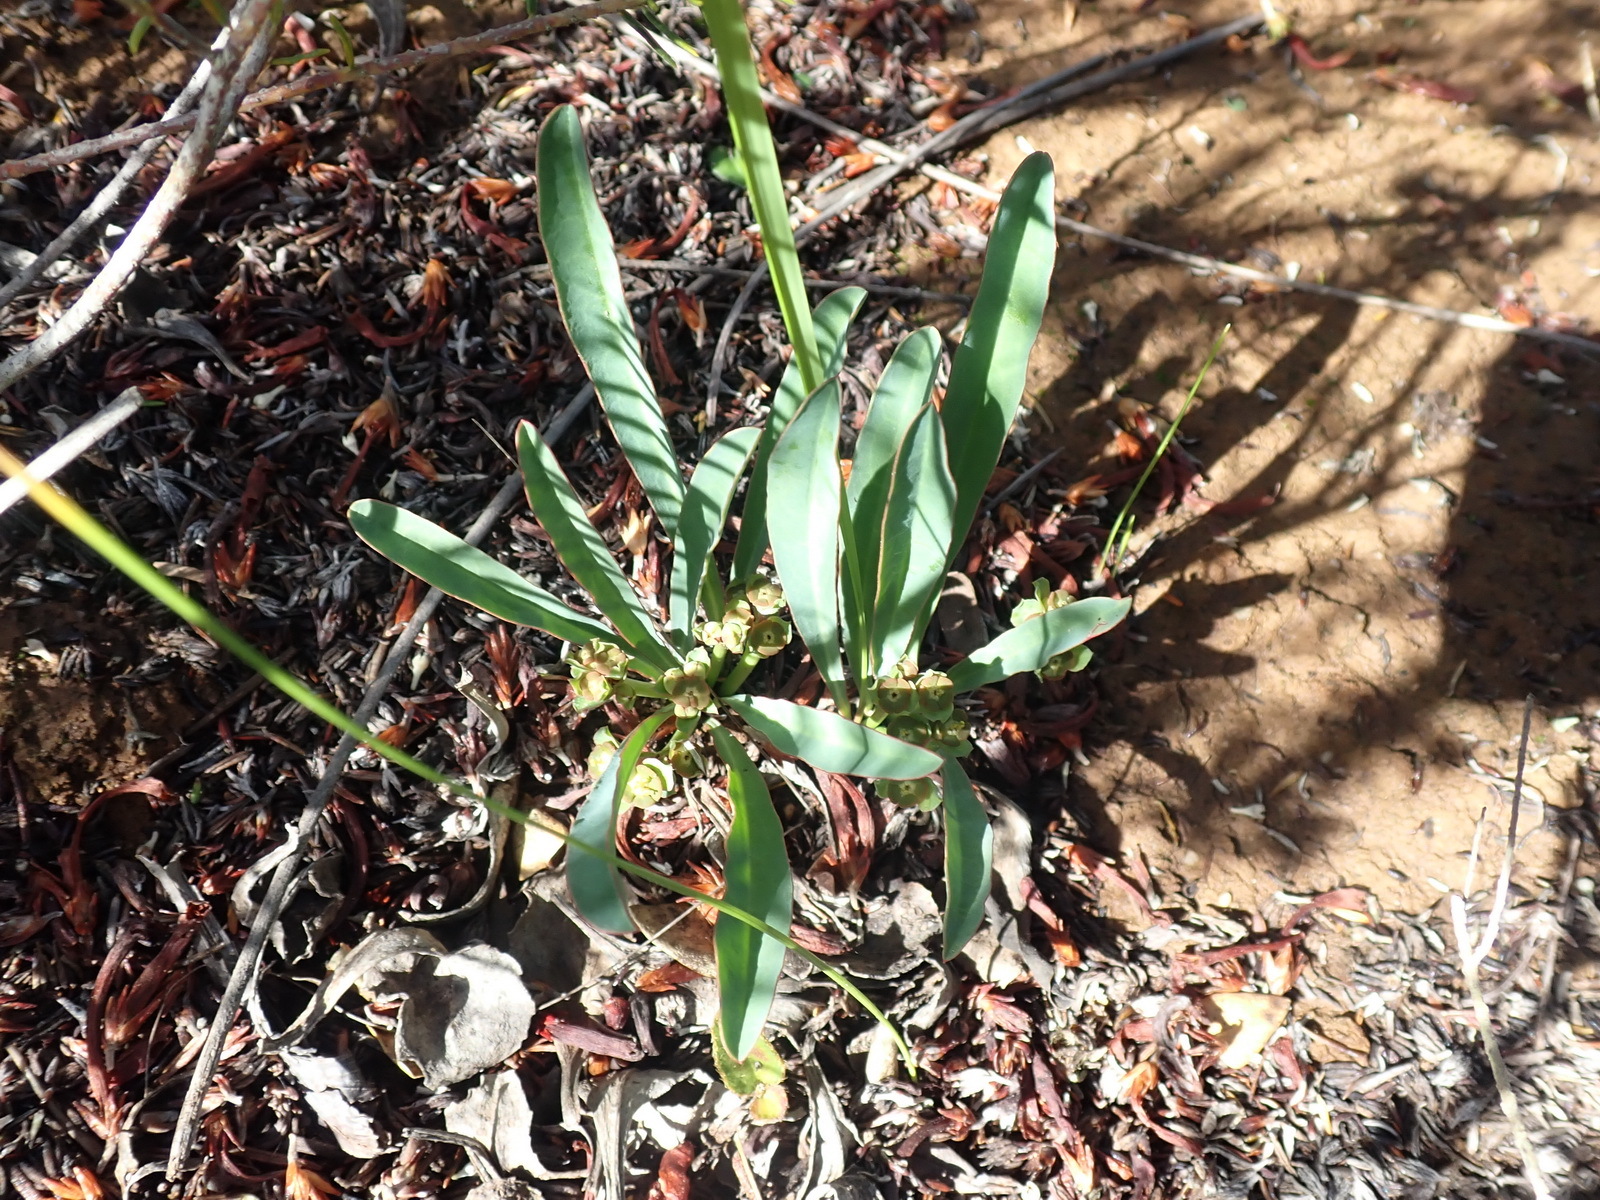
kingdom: Plantae
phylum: Tracheophyta
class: Magnoliopsida
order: Malpighiales
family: Euphorbiaceae
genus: Euphorbia
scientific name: Euphorbia silenifolia
